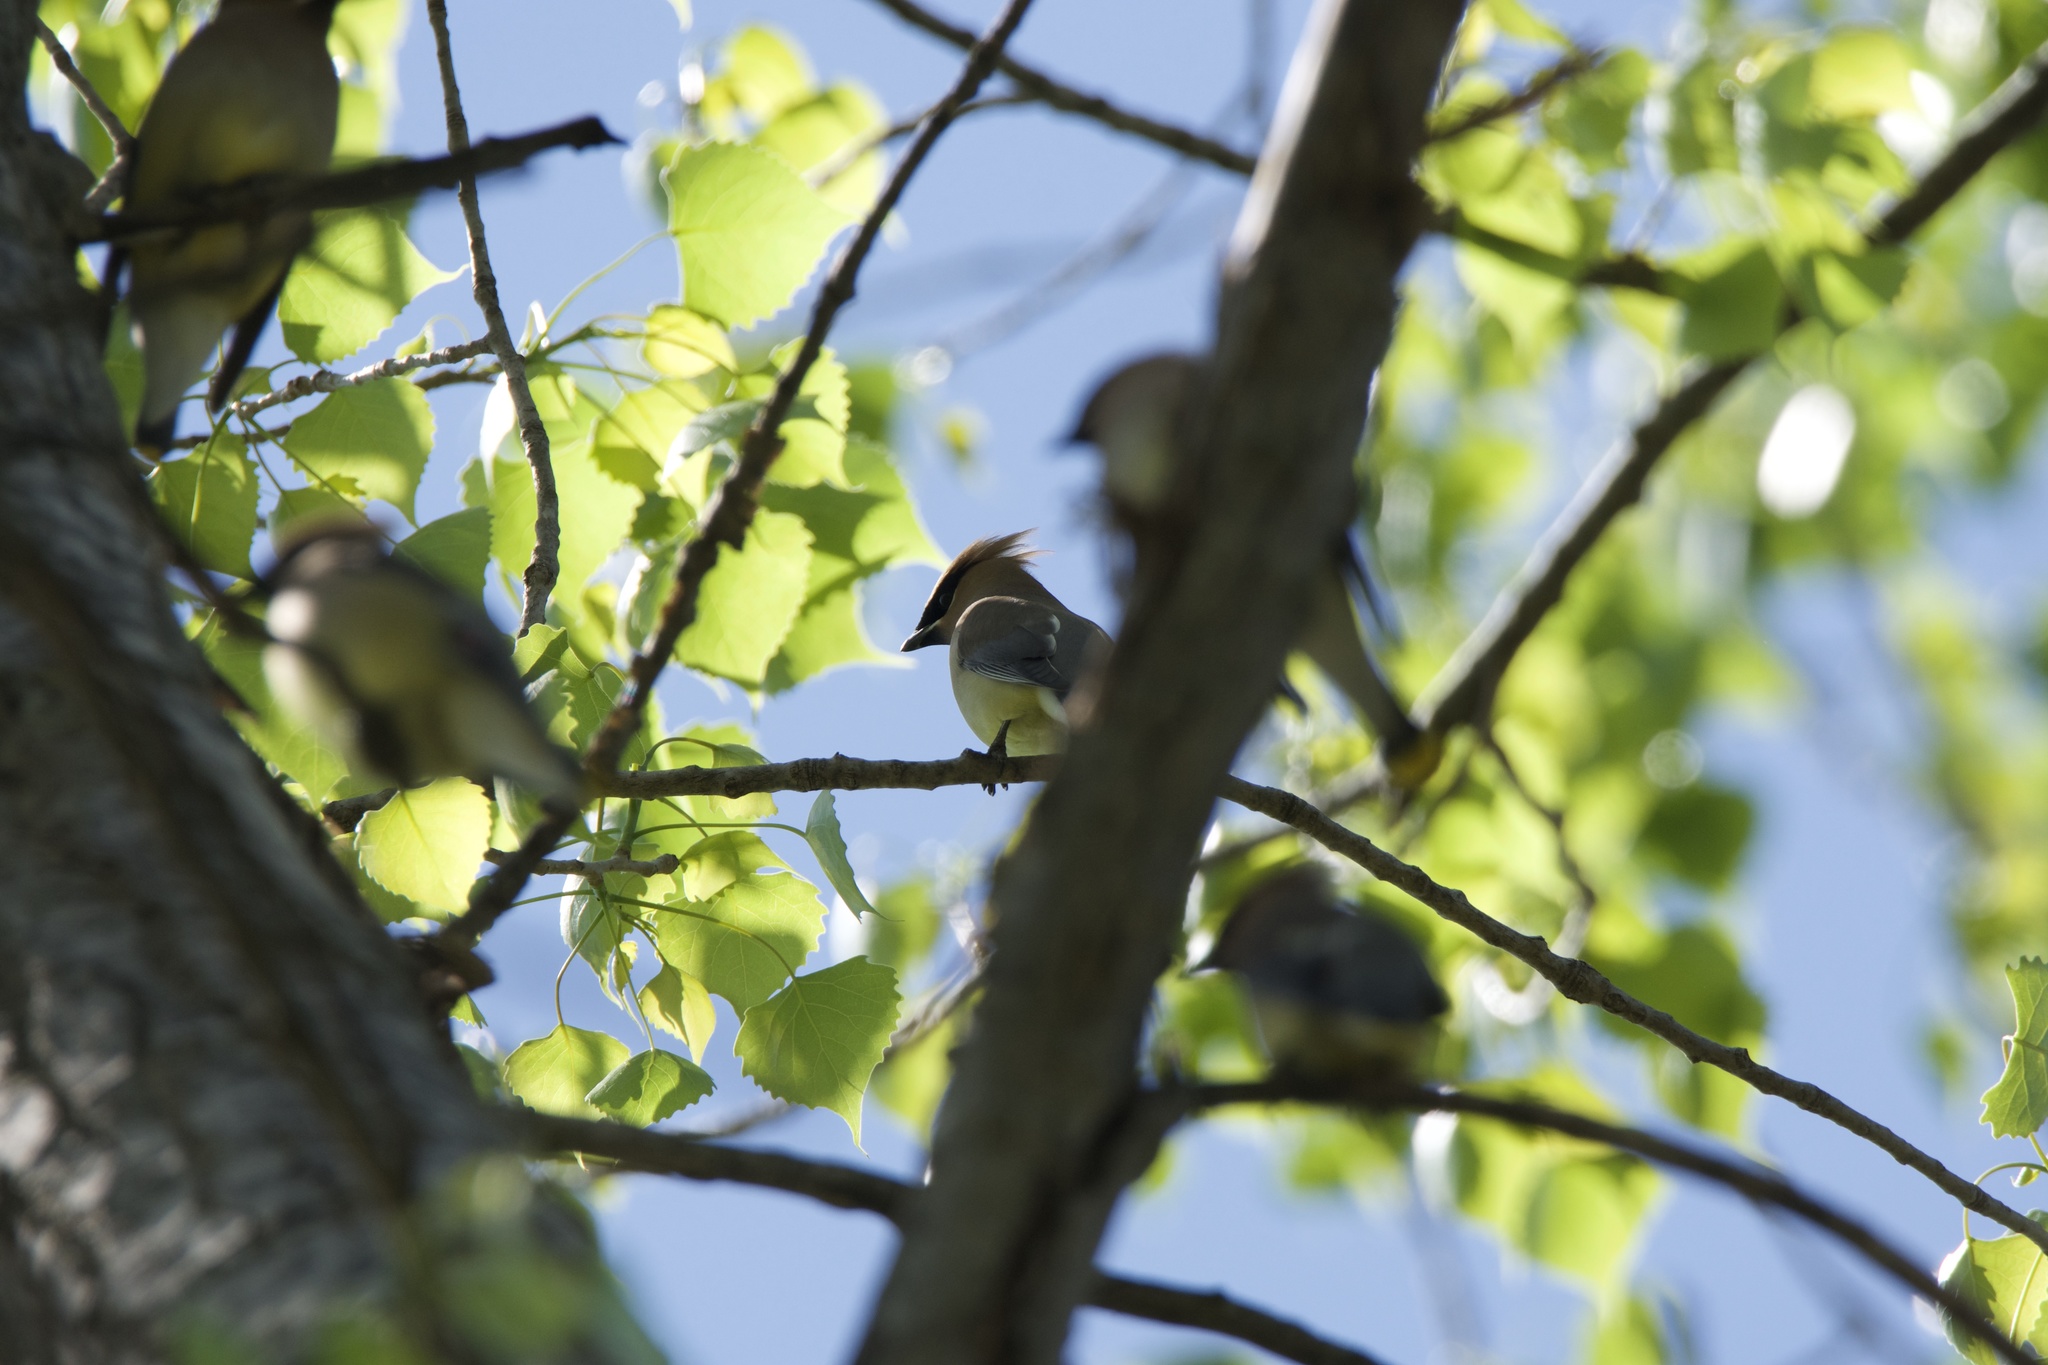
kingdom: Animalia
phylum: Chordata
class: Aves
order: Passeriformes
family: Bombycillidae
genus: Bombycilla
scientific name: Bombycilla cedrorum
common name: Cedar waxwing
